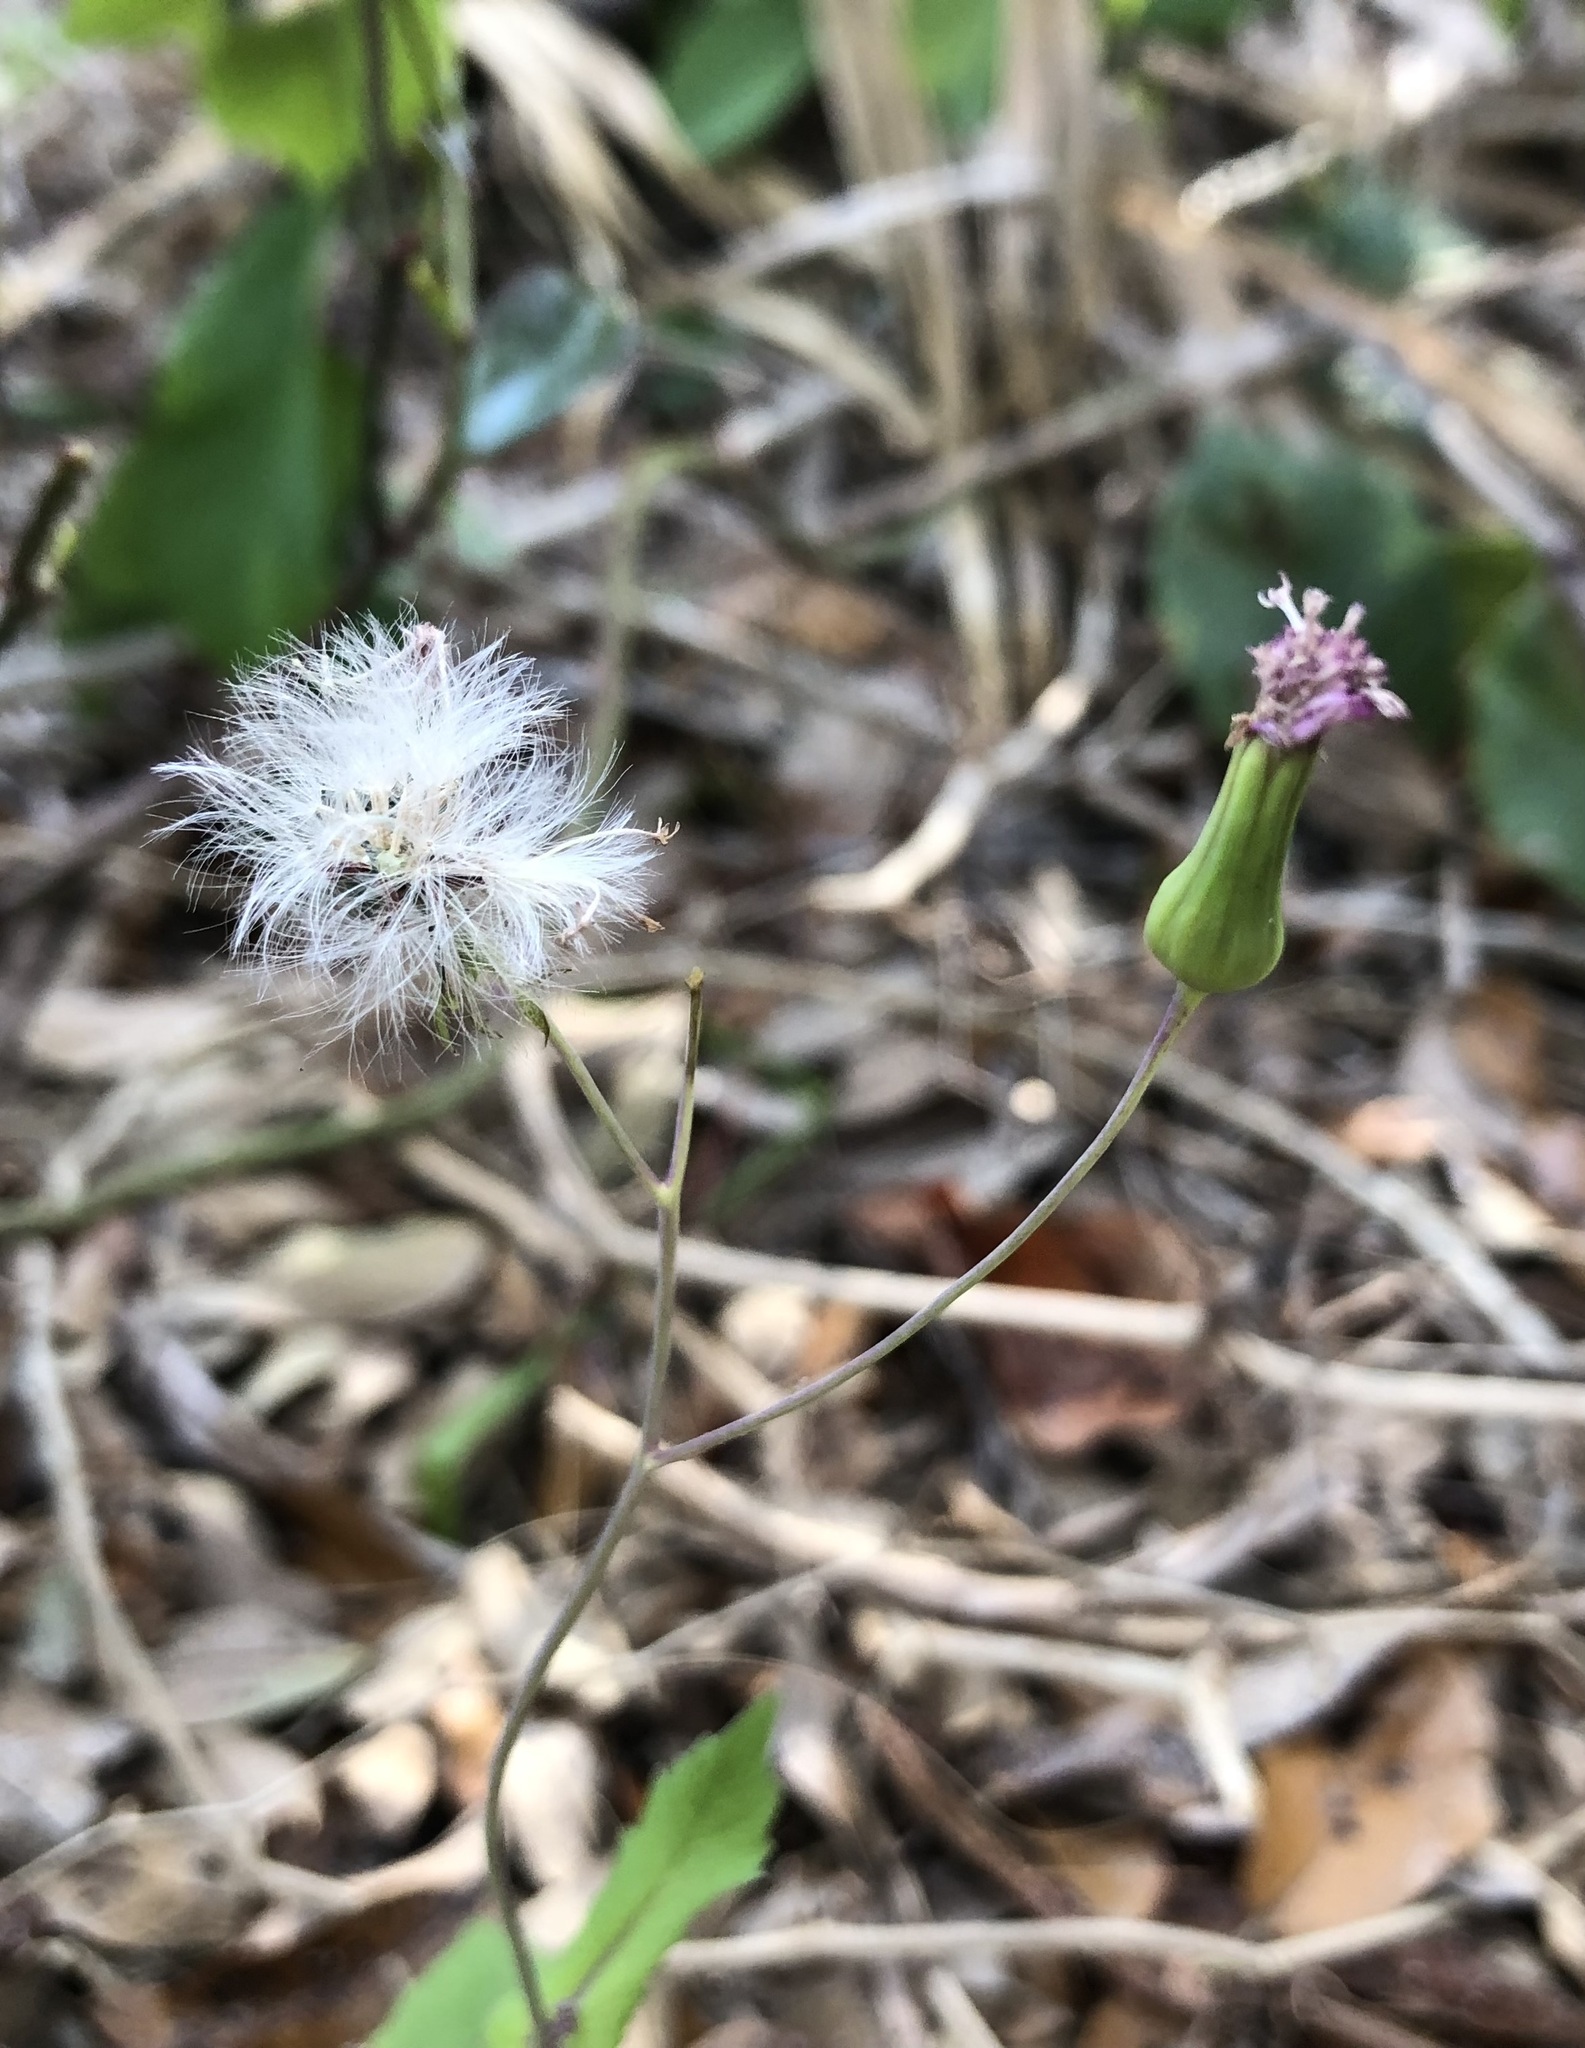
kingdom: Plantae
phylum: Tracheophyta
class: Magnoliopsida
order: Asterales
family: Asteraceae
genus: Emilia
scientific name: Emilia sonchifolia
